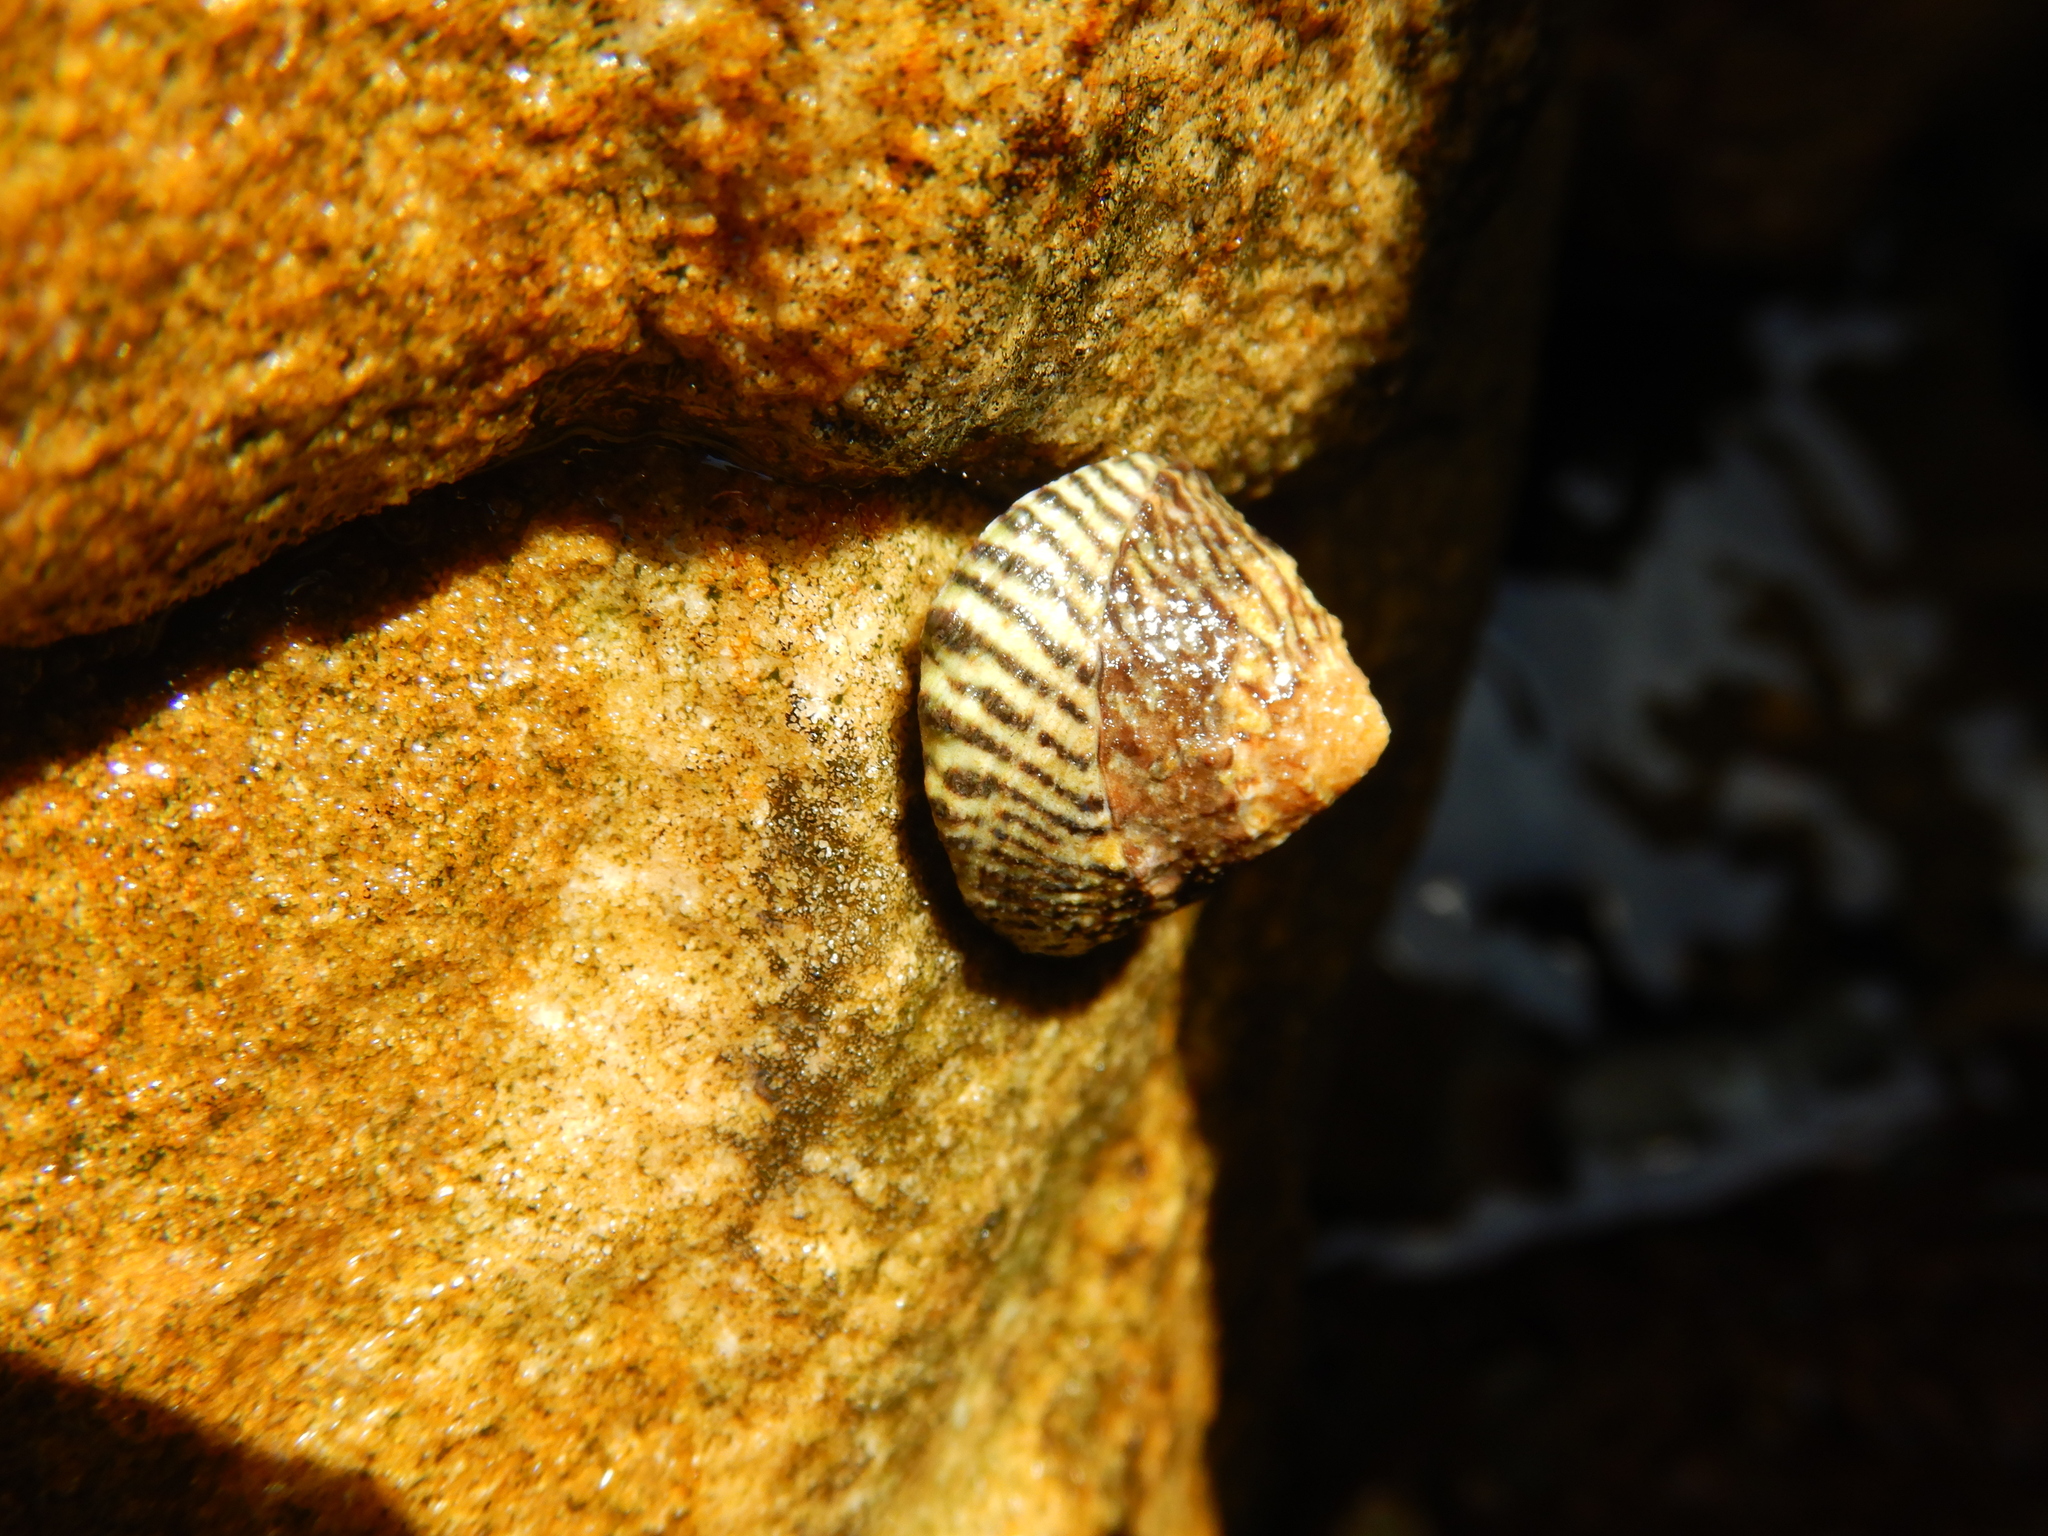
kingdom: Animalia
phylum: Mollusca
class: Gastropoda
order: Littorinimorpha
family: Littorinidae
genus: Bembicium
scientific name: Bembicium nanum
